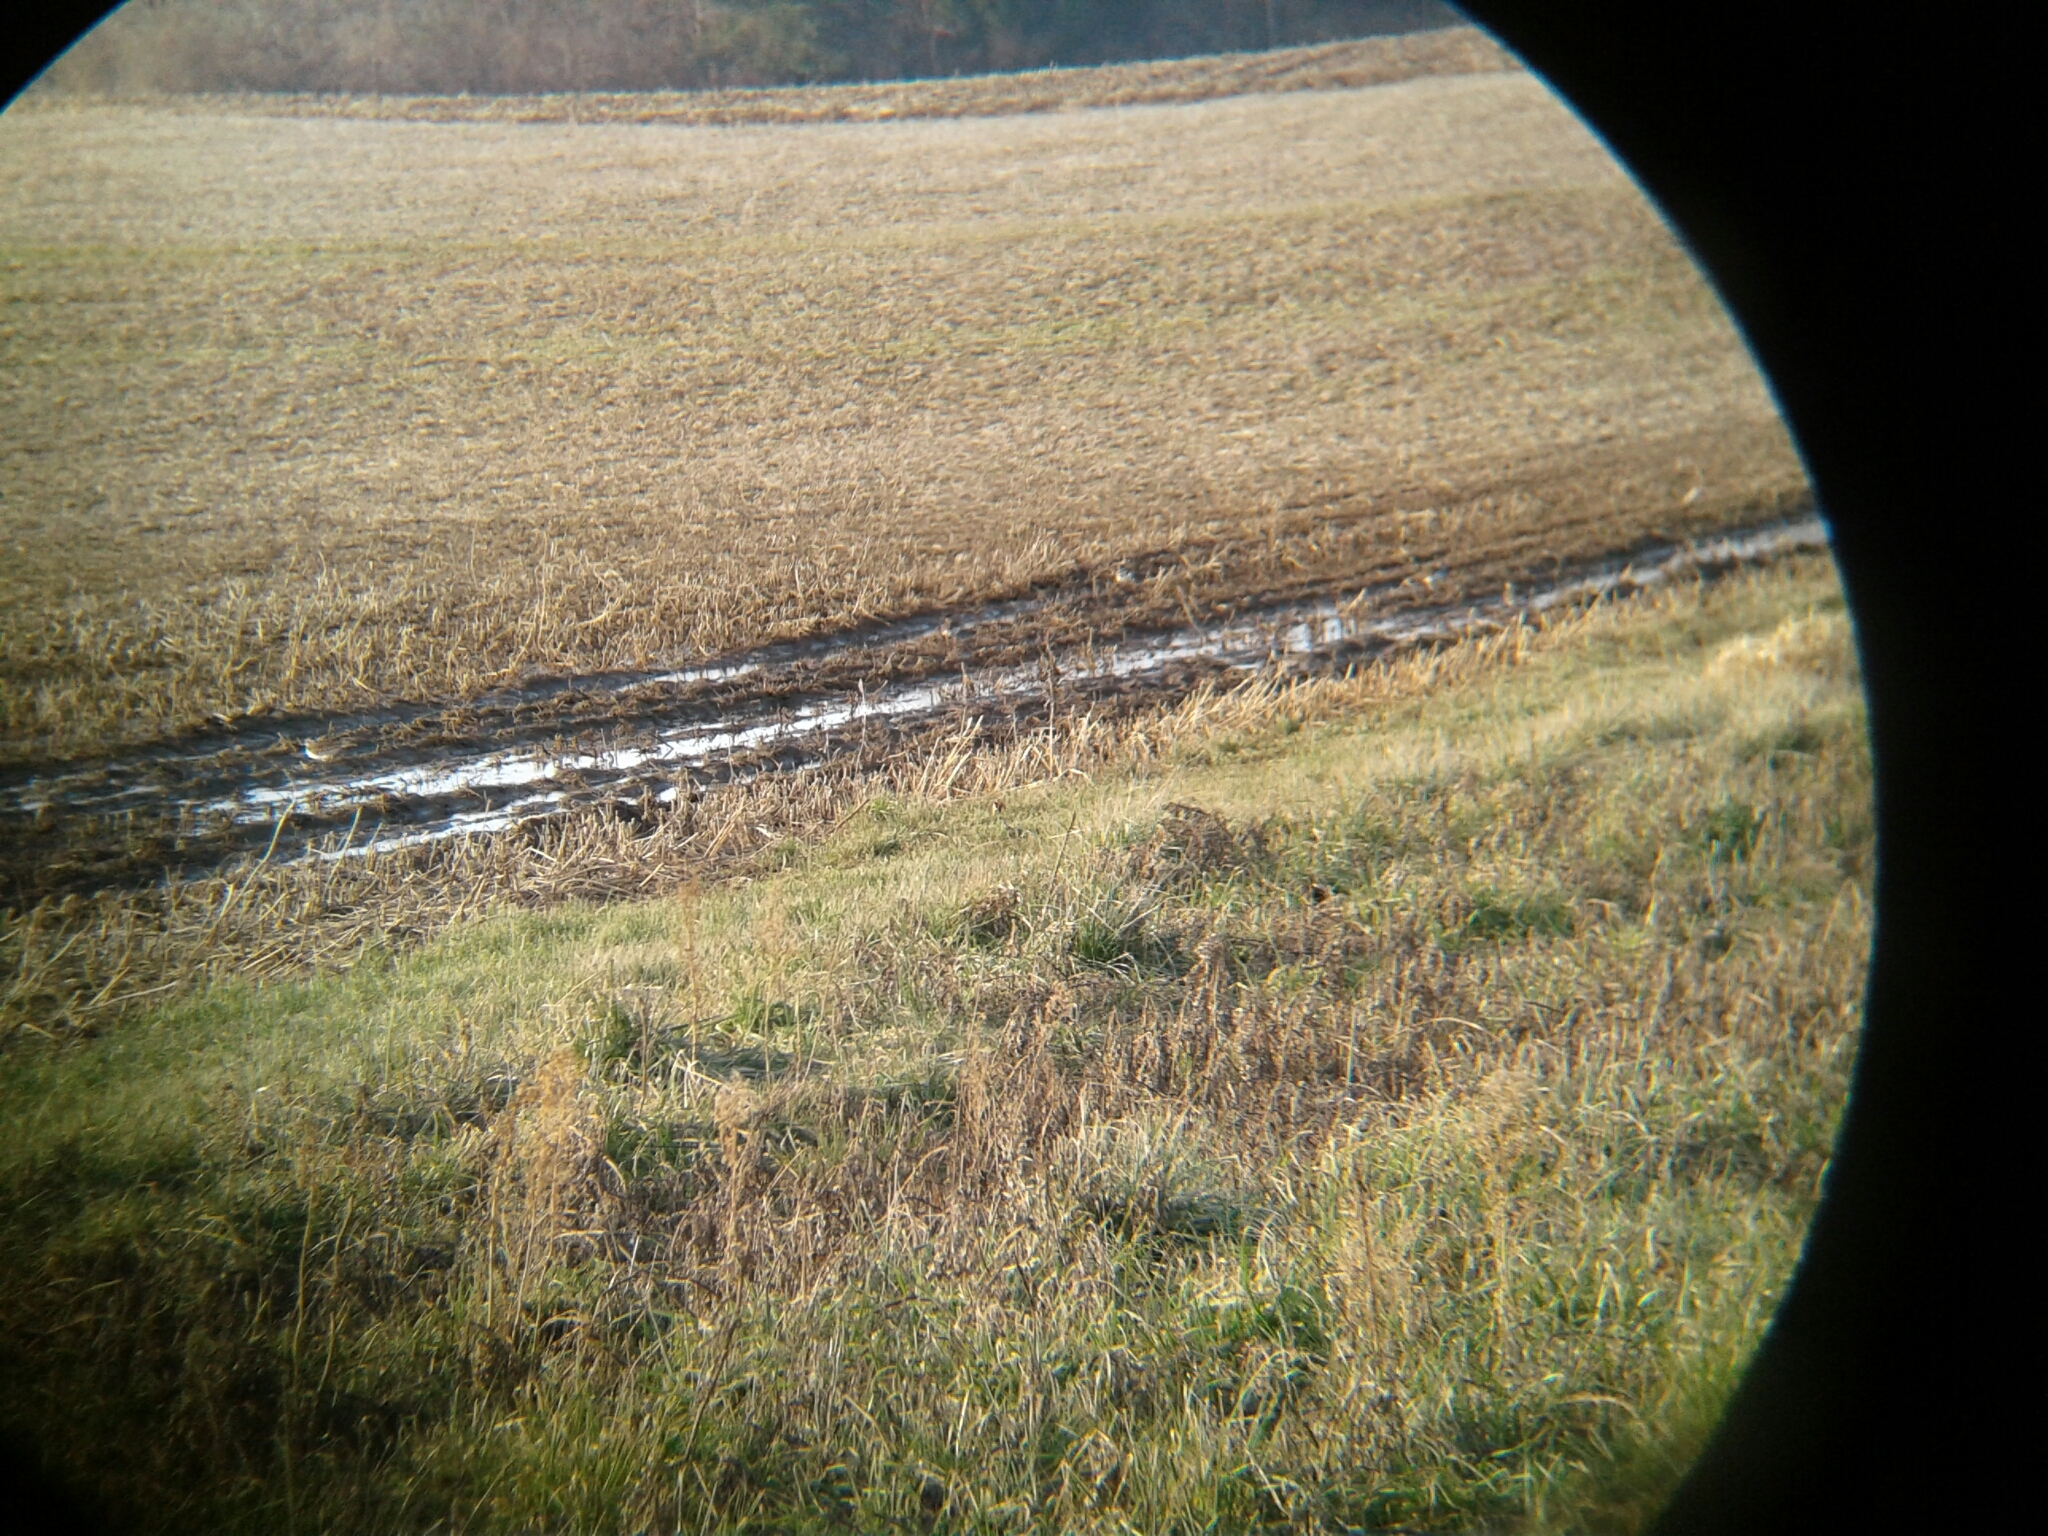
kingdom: Animalia
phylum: Chordata
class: Aves
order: Charadriiformes
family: Charadriidae
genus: Charadrius
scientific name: Charadrius vociferus
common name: Killdeer
